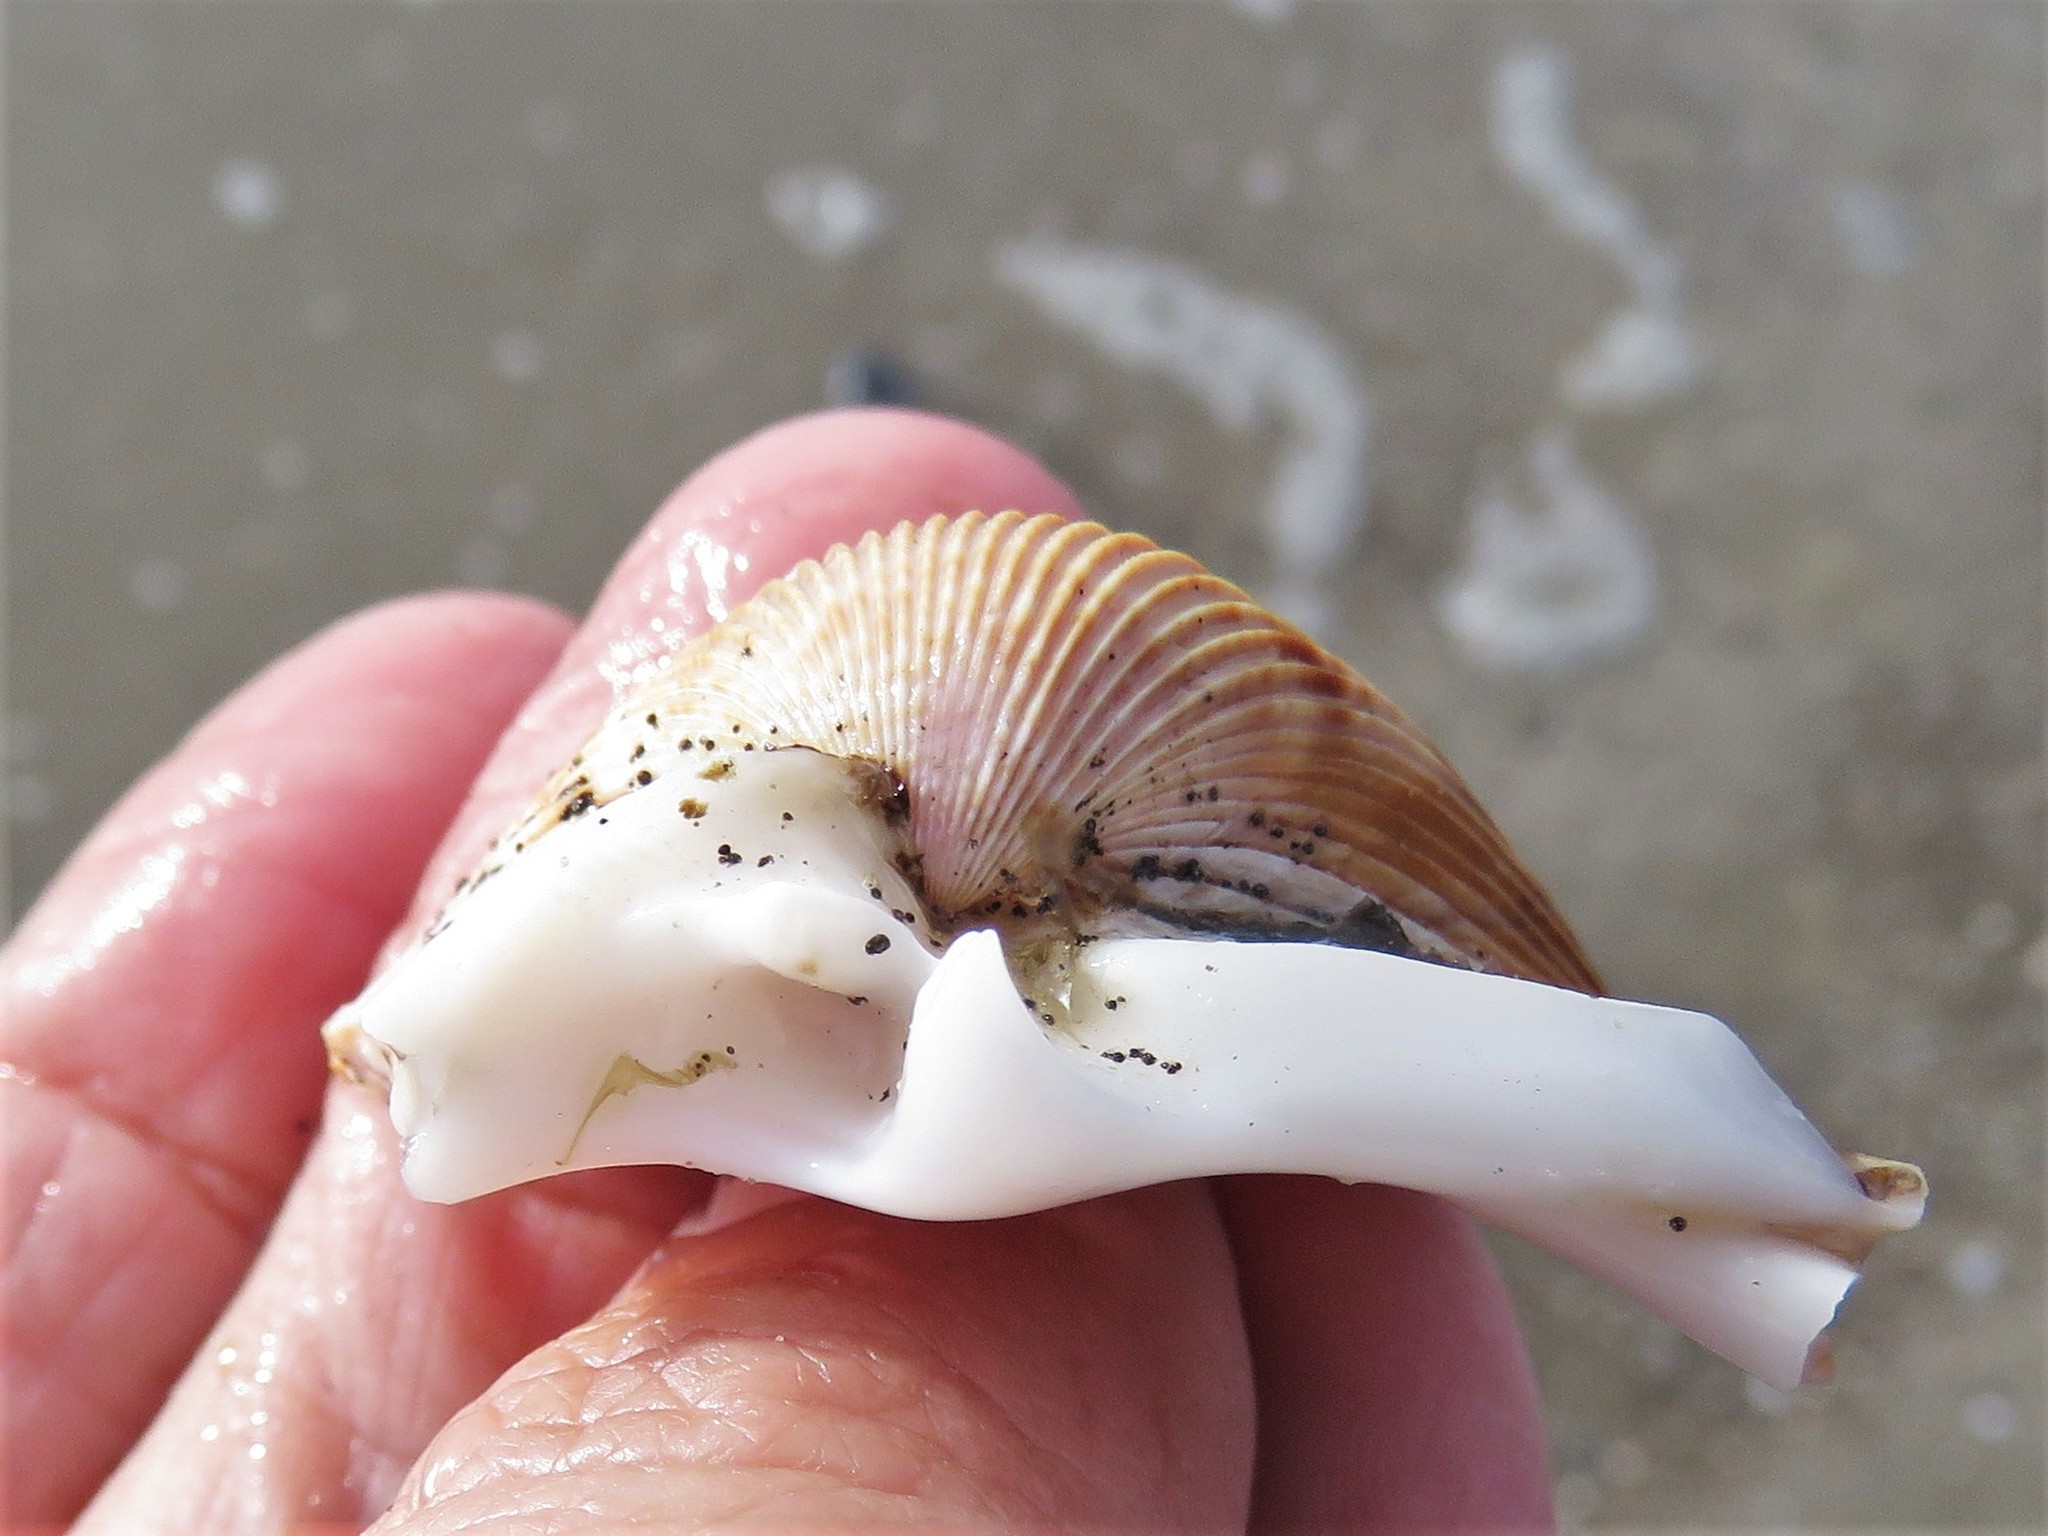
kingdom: Animalia
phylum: Mollusca
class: Bivalvia
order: Cardiida
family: Cardiidae
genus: Dinocardium
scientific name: Dinocardium robustum
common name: Atlantic giant cockle
